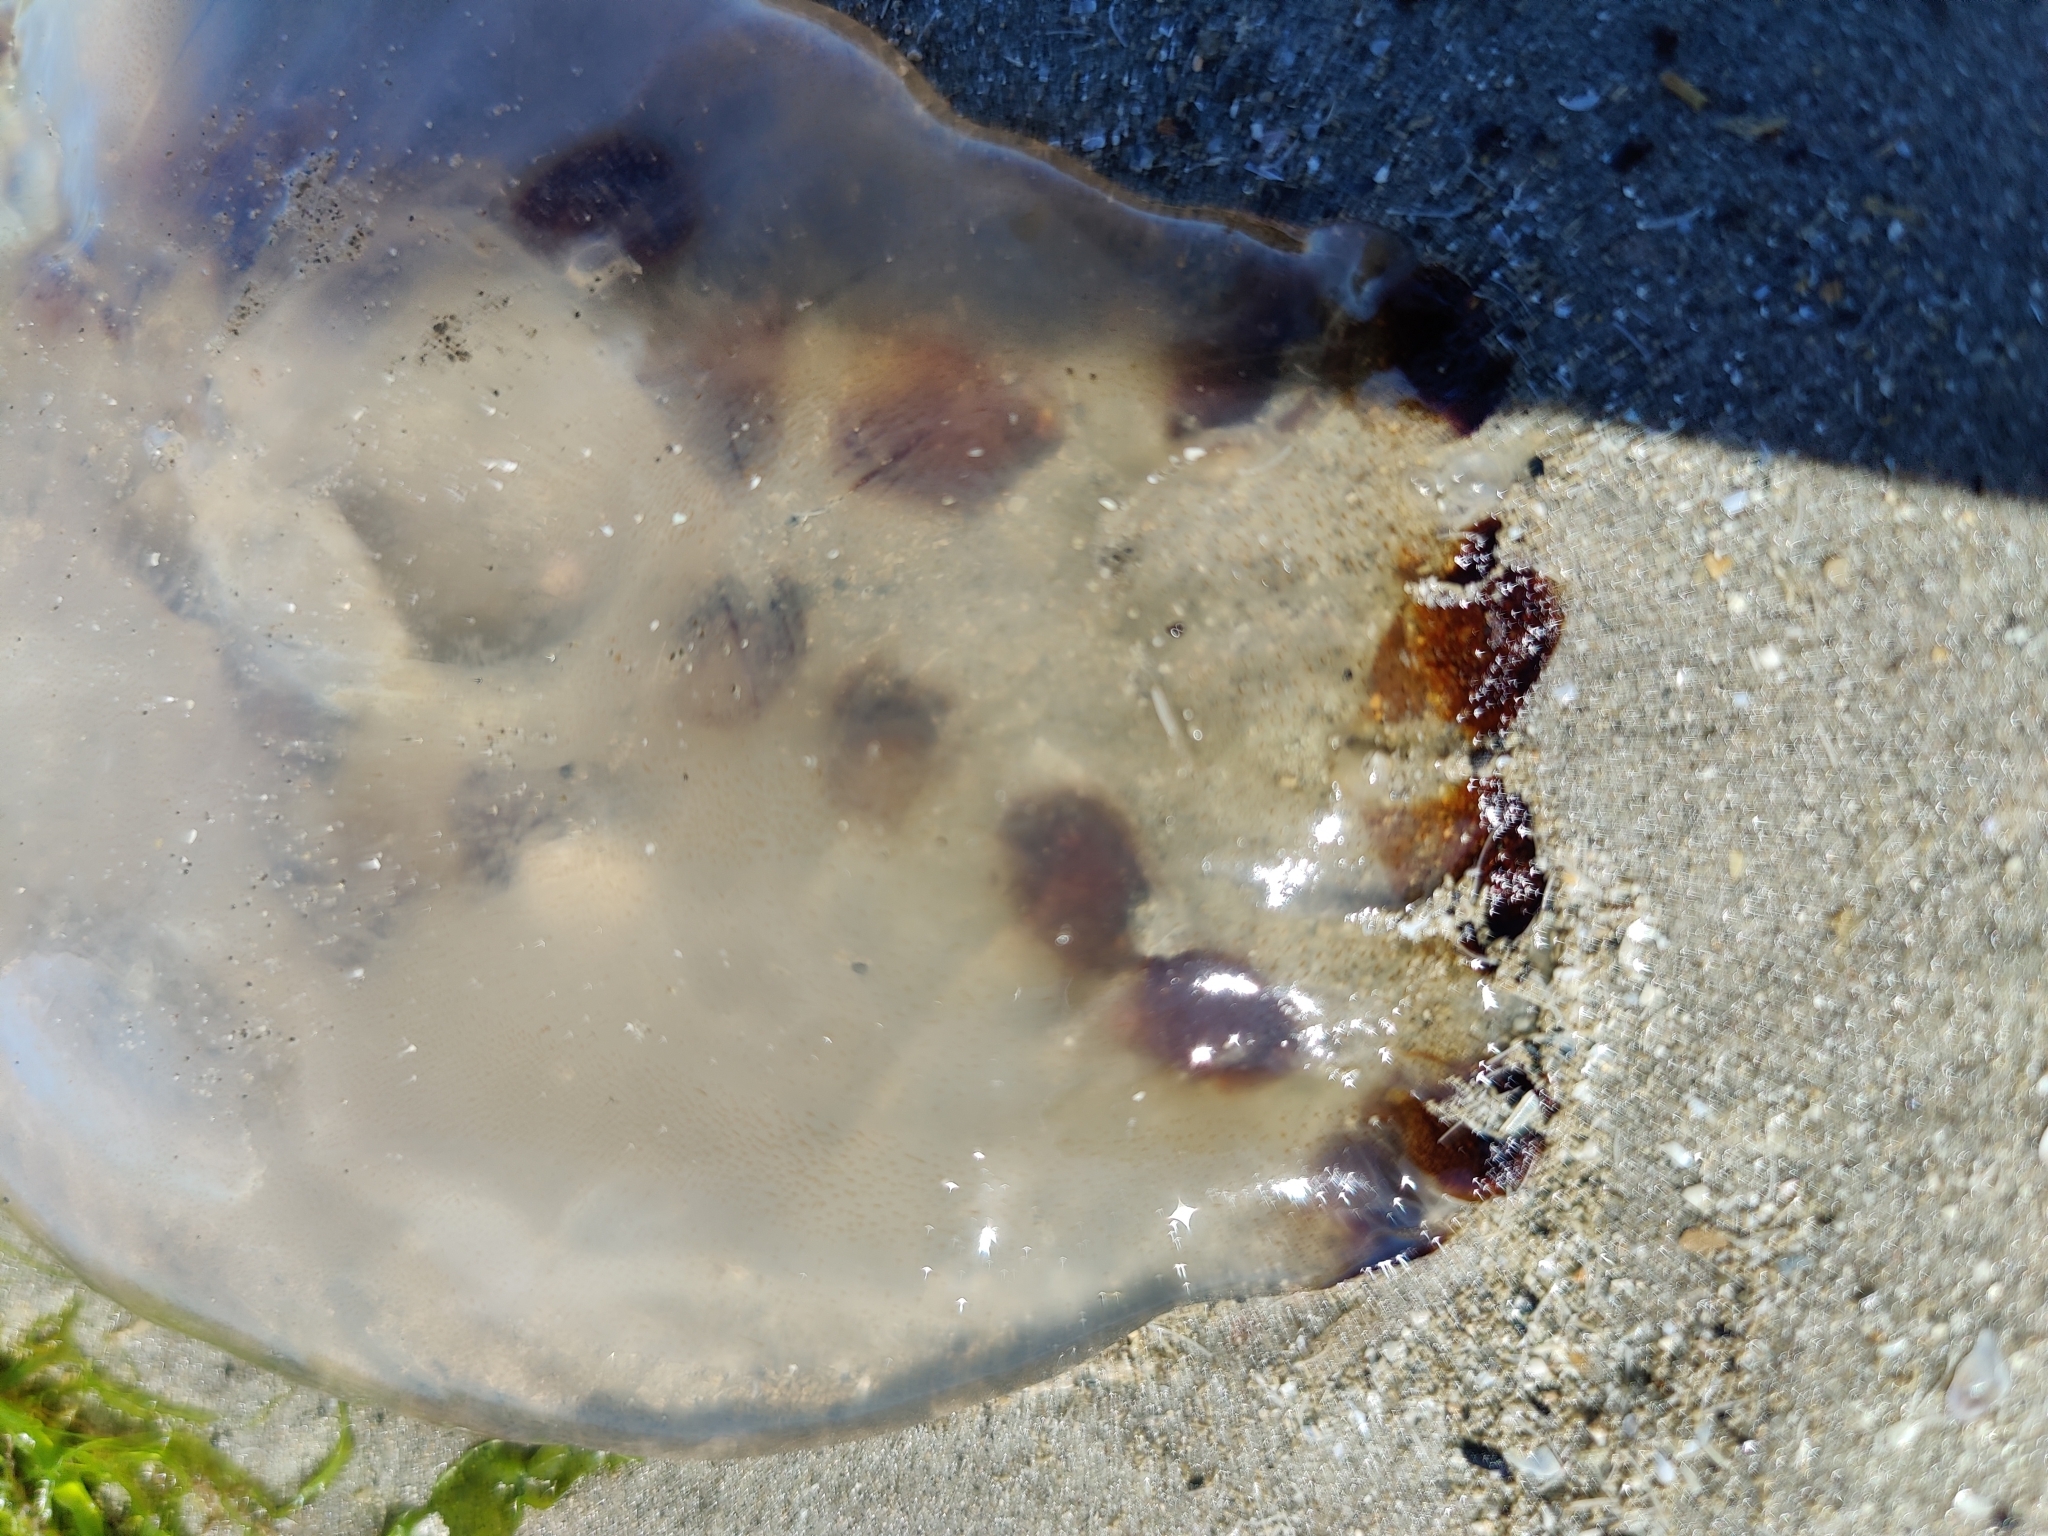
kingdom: Animalia
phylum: Cnidaria
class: Scyphozoa
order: Semaeostomeae
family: Pelagiidae
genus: Chrysaora
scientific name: Chrysaora hysoscella
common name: Compass jellyfish
